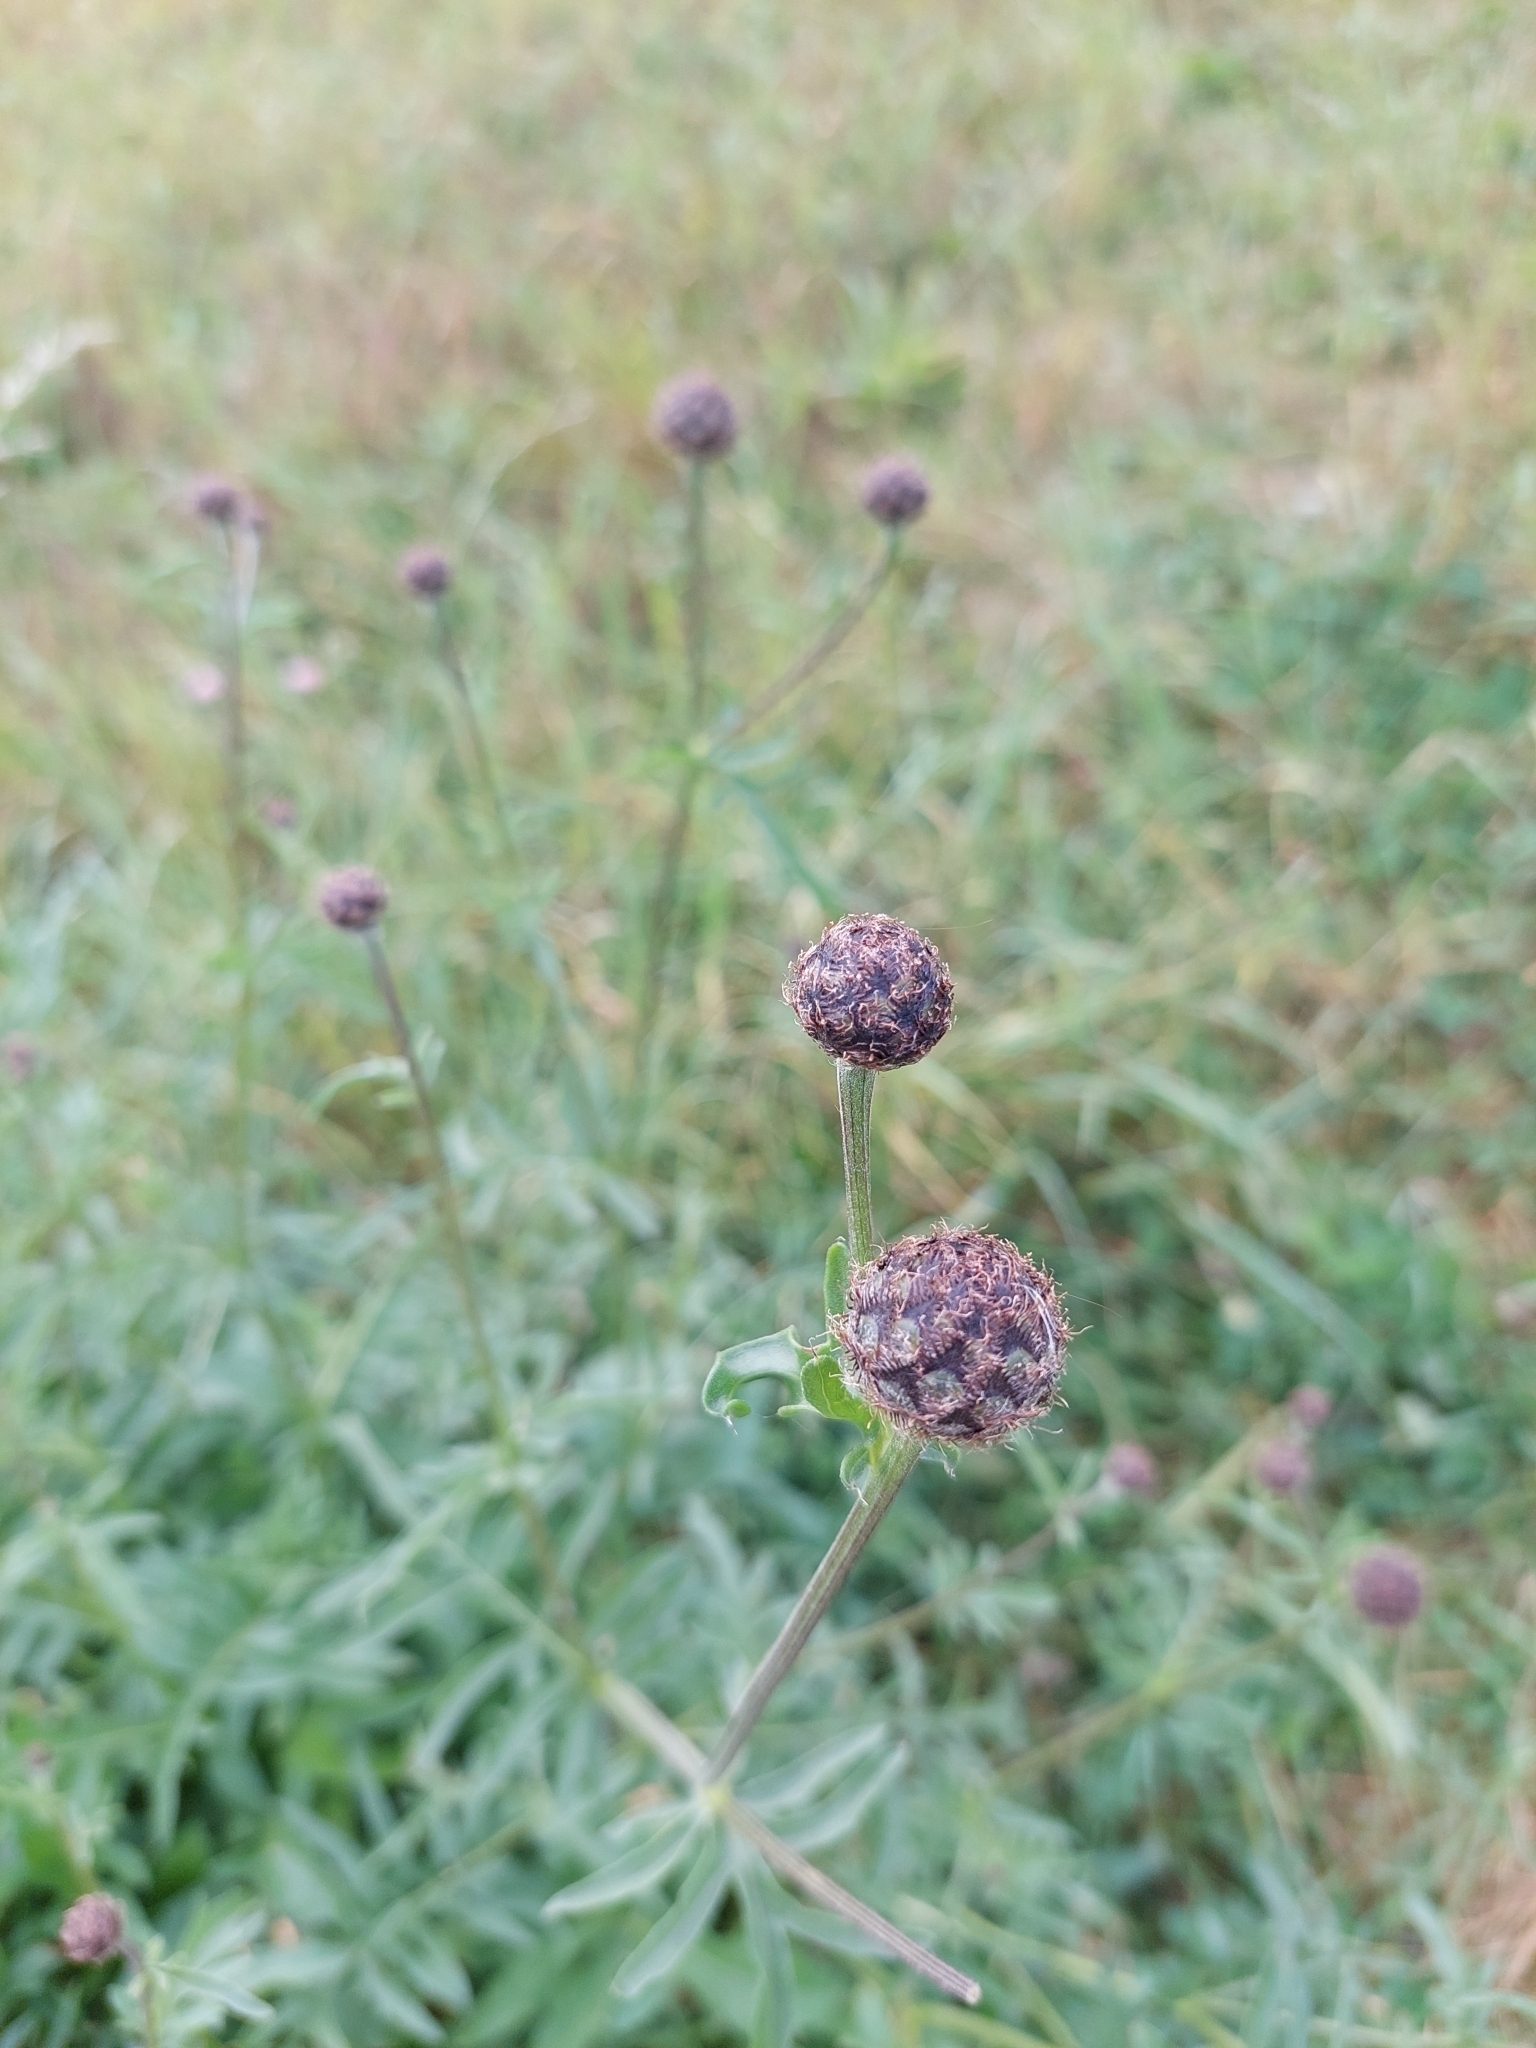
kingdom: Plantae
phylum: Tracheophyta
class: Magnoliopsida
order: Asterales
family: Asteraceae
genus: Centaurea
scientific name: Centaurea scabiosa
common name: Greater knapweed
